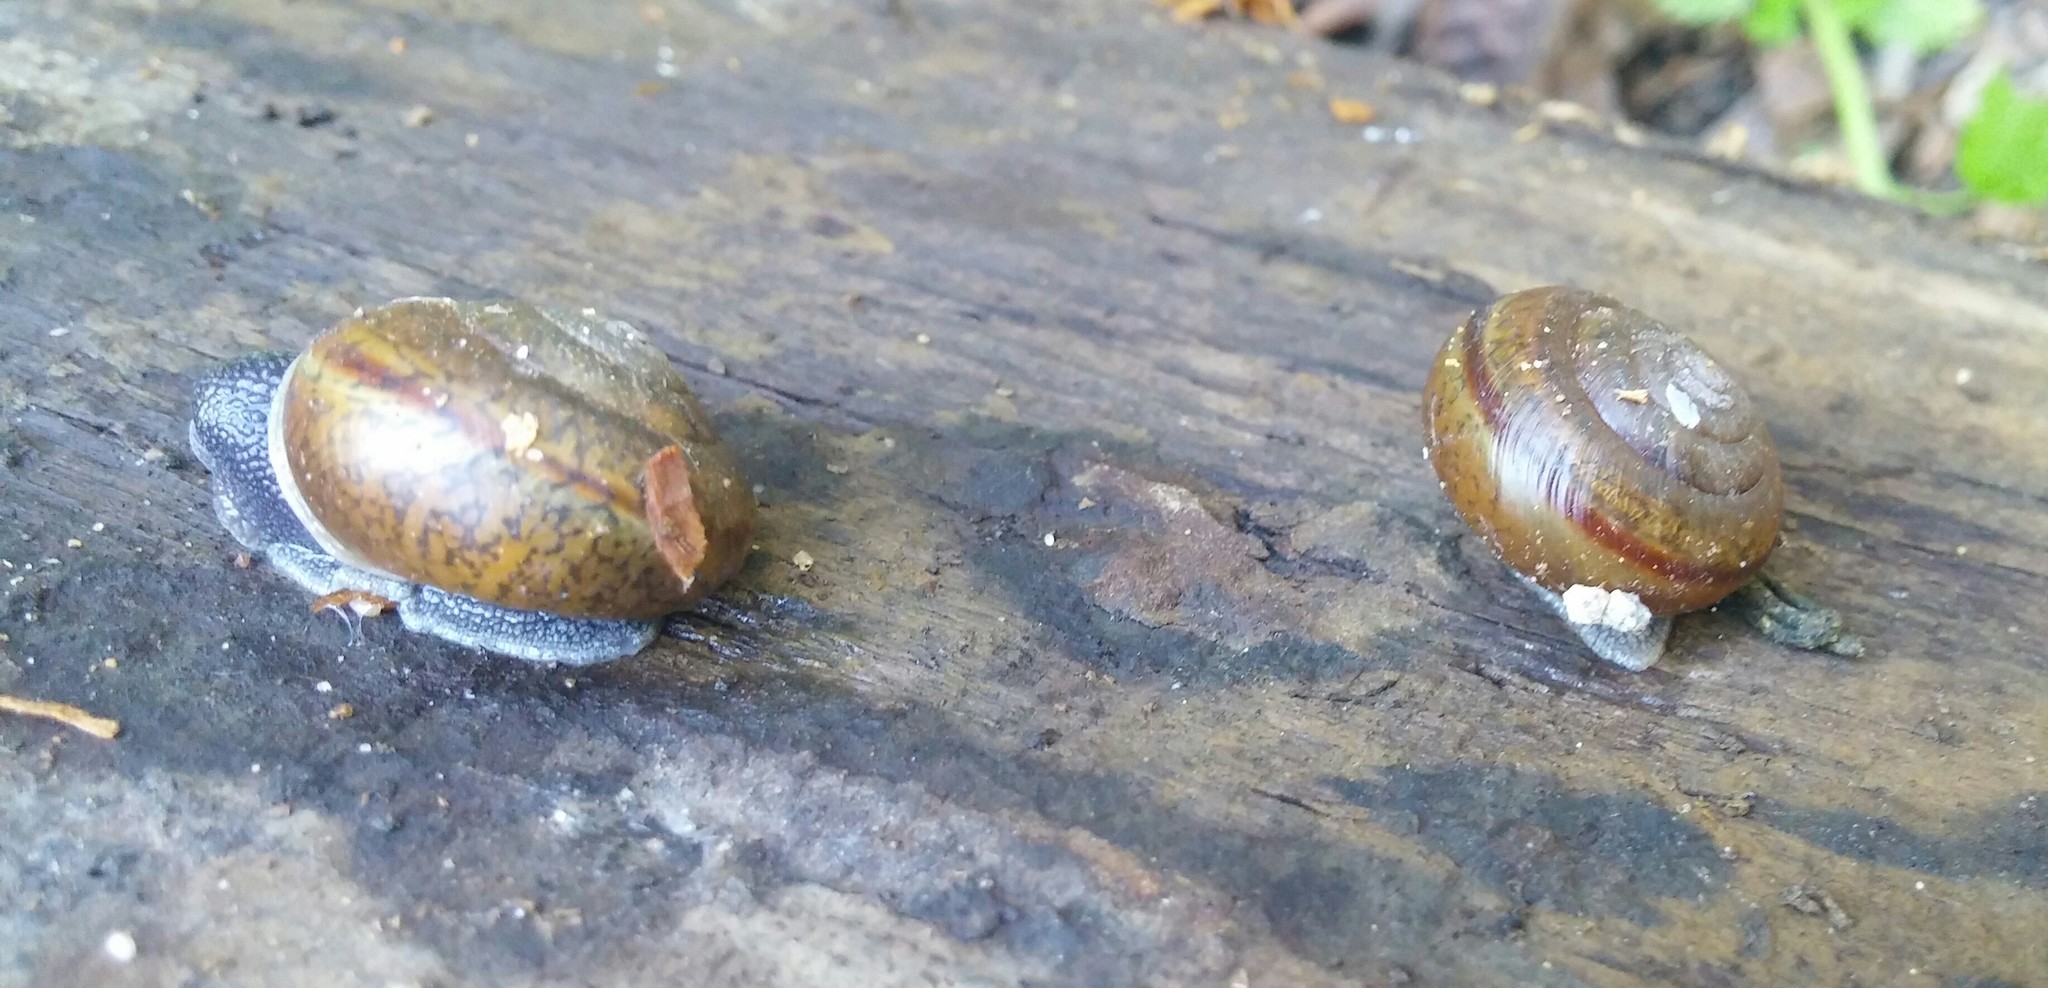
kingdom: Animalia
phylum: Mollusca
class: Gastropoda
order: Stylommatophora
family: Xanthonychidae
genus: Helminthoglypta
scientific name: Helminthoglypta traskii
